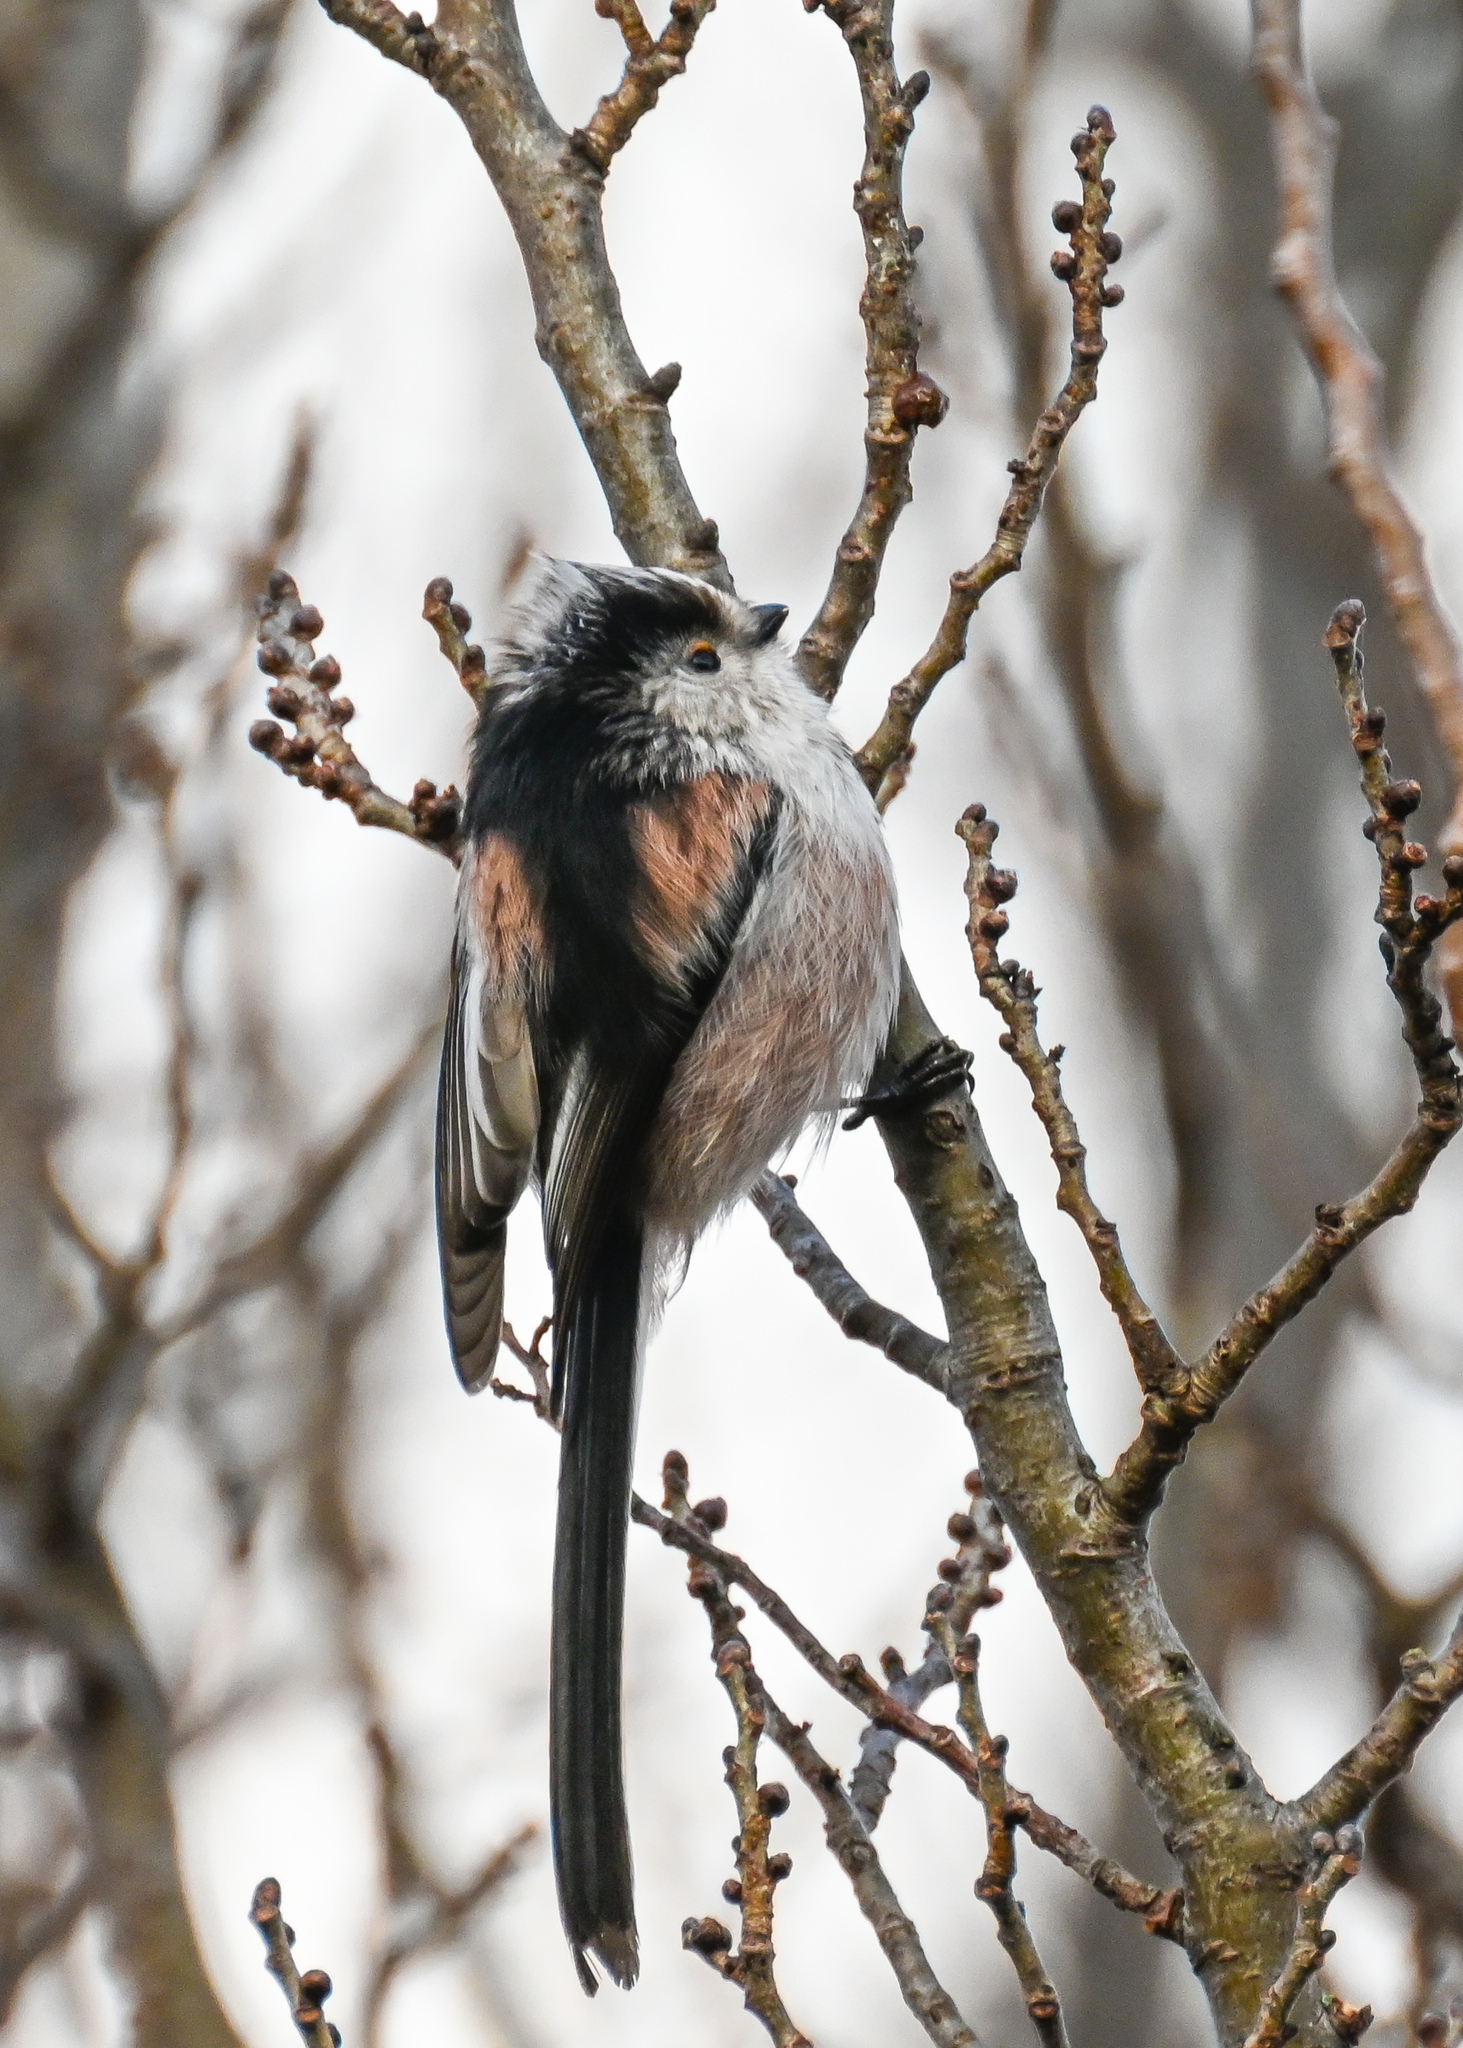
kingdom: Animalia
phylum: Chordata
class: Aves
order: Passeriformes
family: Aegithalidae
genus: Aegithalos
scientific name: Aegithalos caudatus
